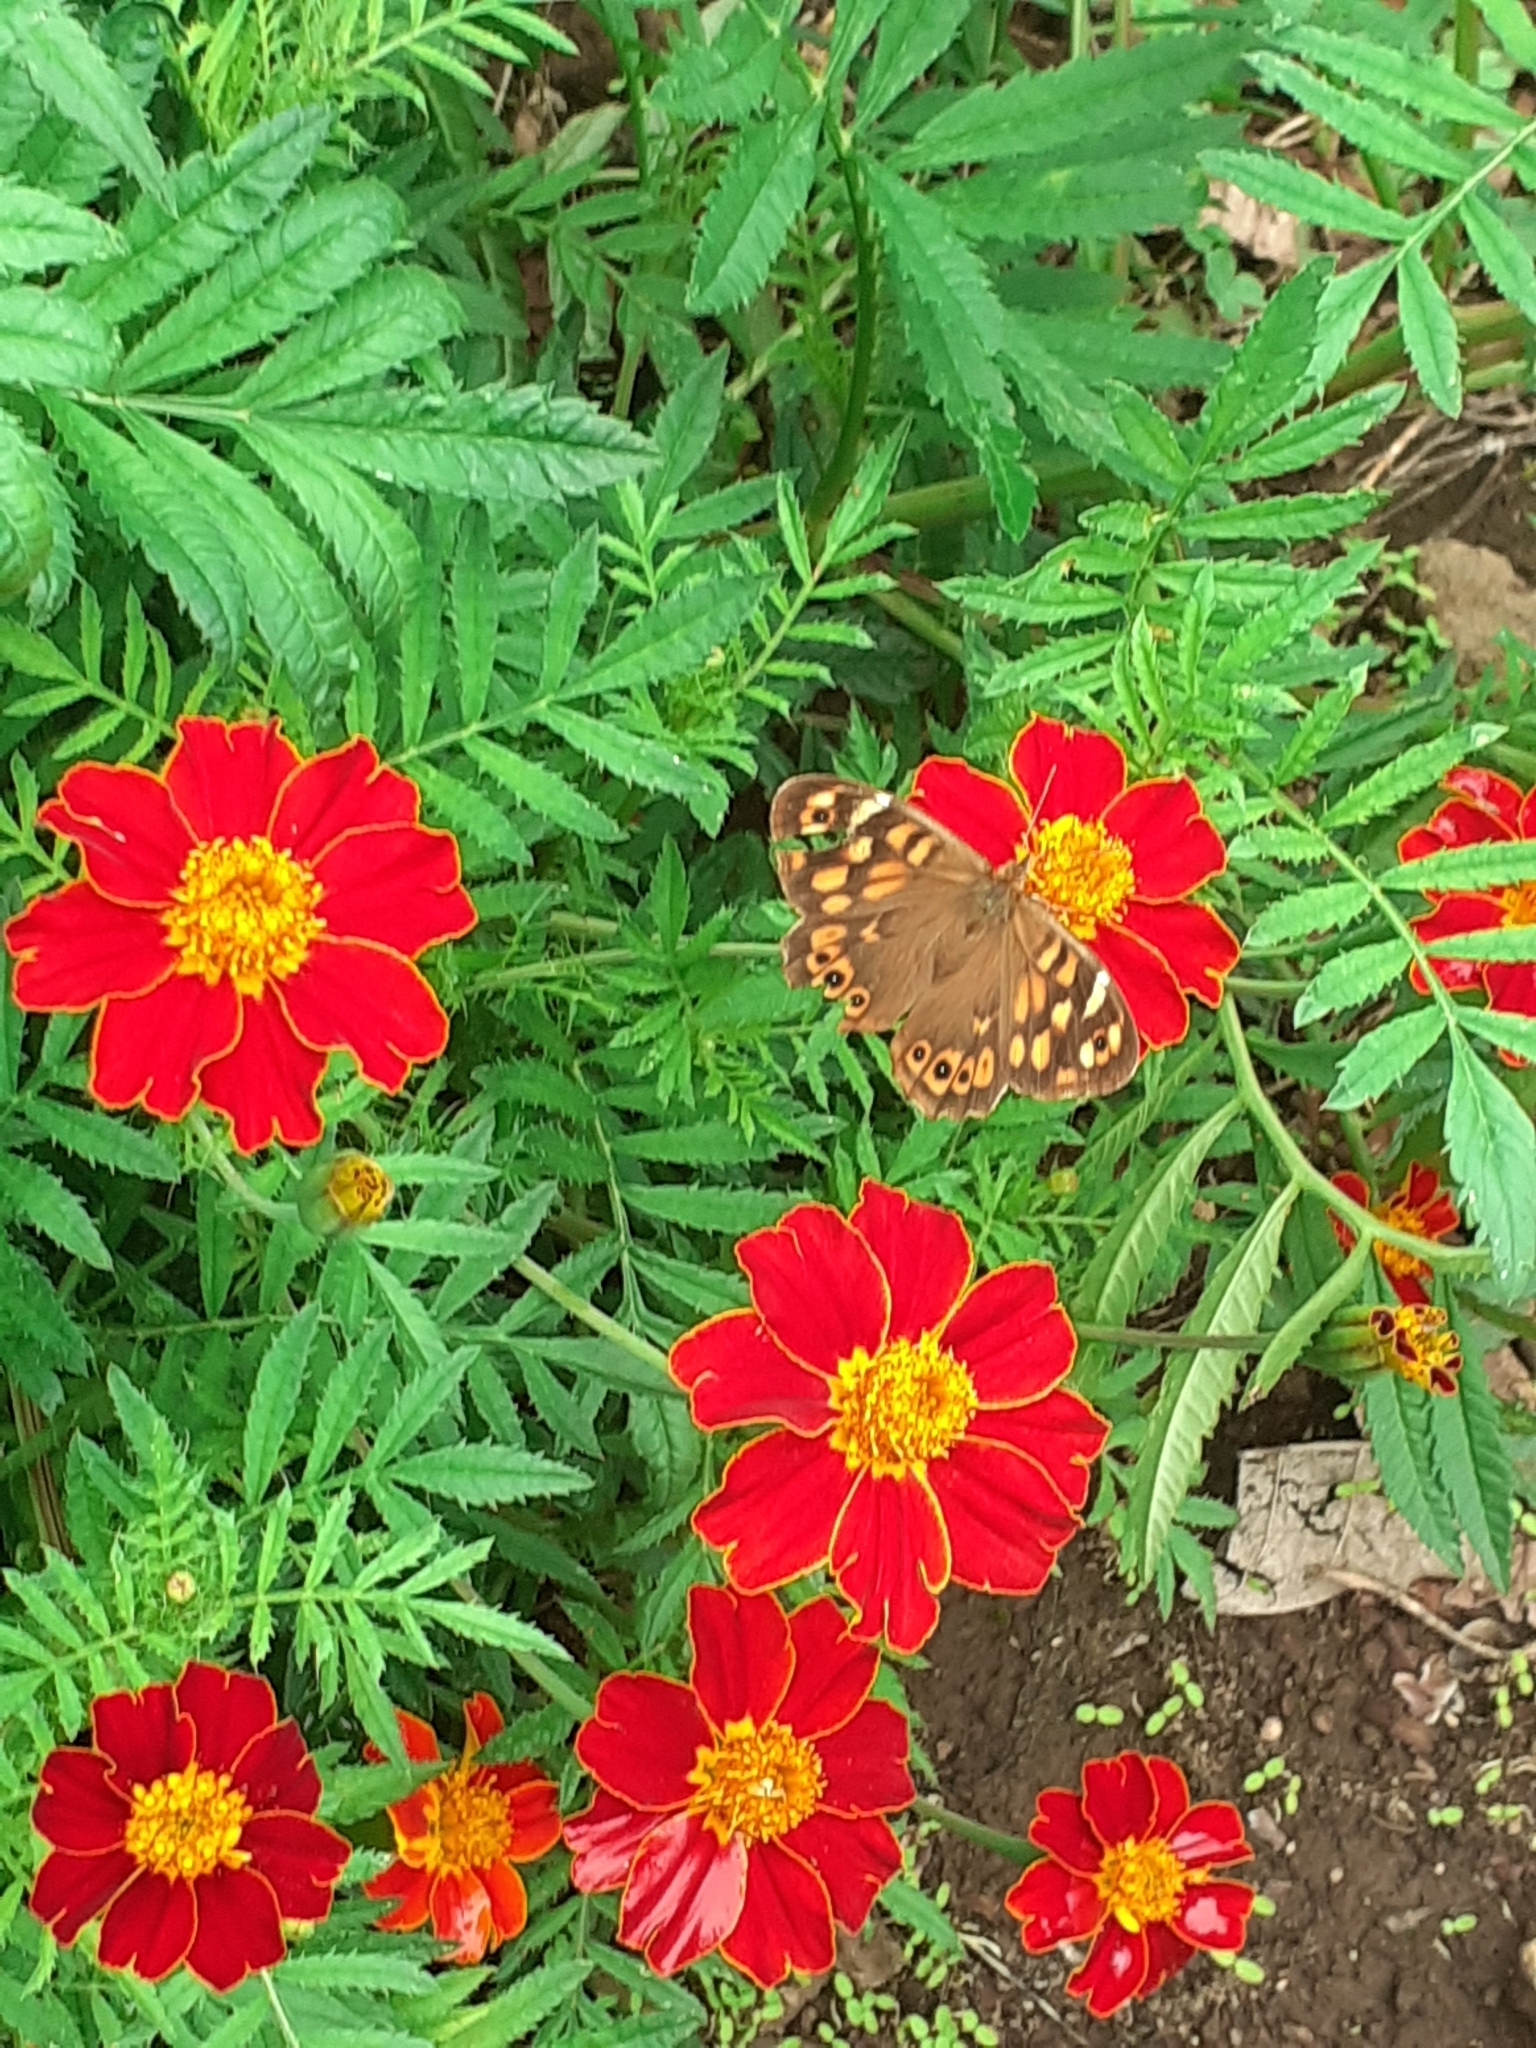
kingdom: Animalia
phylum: Arthropoda
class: Insecta
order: Lepidoptera
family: Nymphalidae
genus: Pararge
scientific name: Pararge aegeria
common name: Speckled wood
